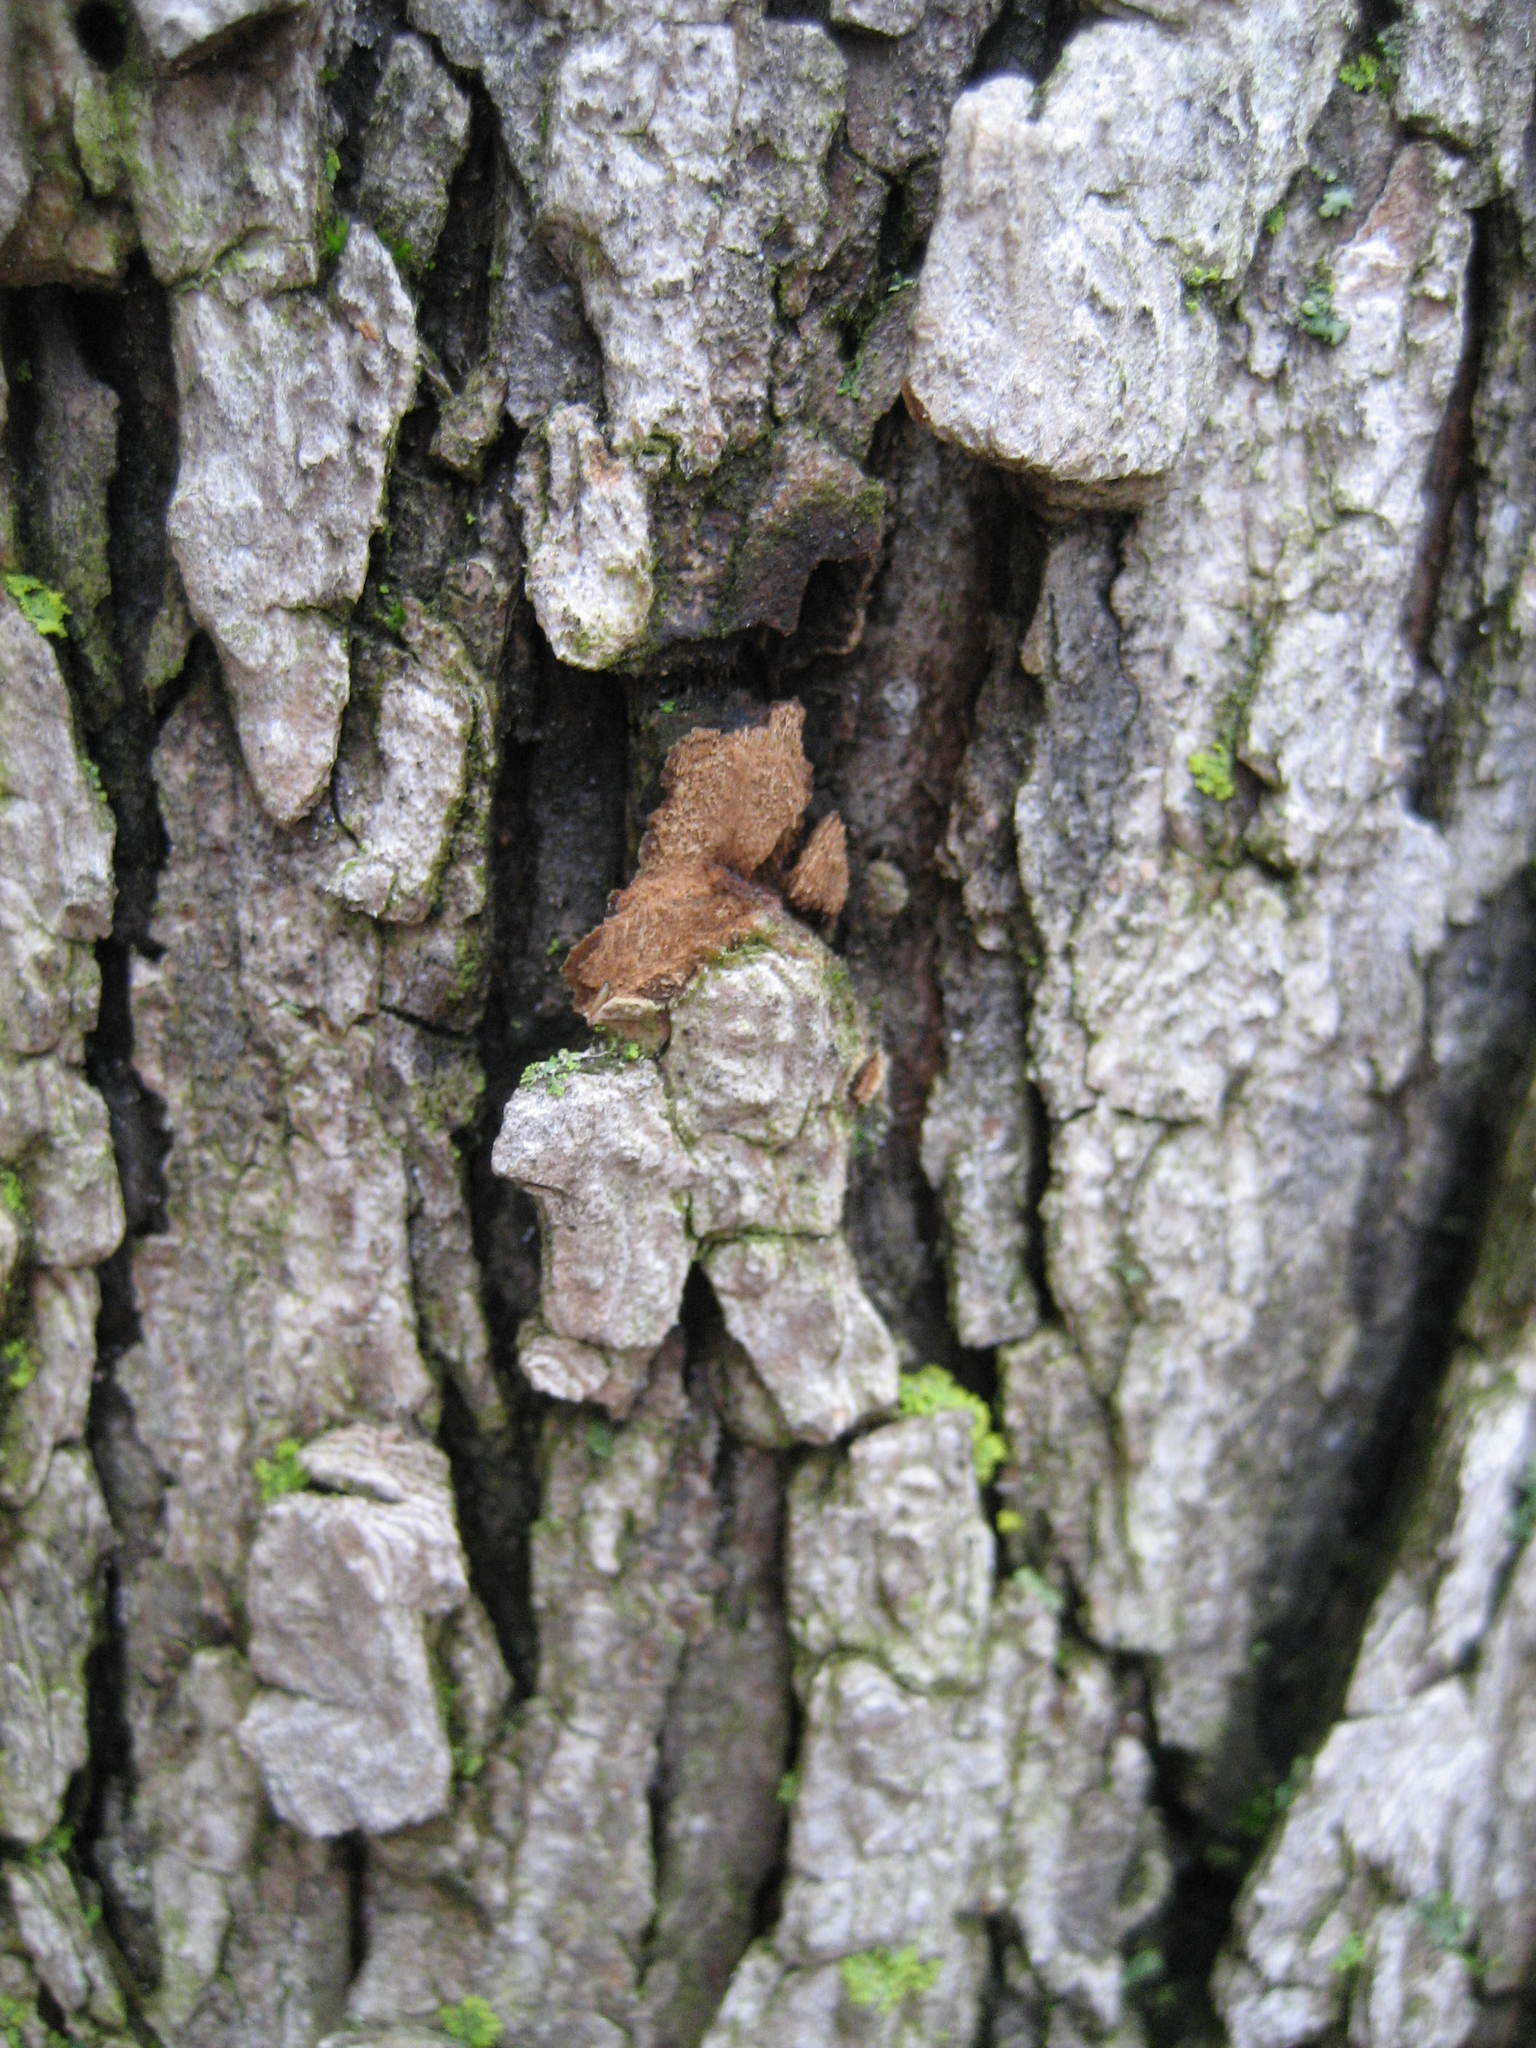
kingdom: Plantae
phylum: Tracheophyta
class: Magnoliopsida
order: Rosales
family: Ulmaceae
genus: Ulmus
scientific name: Ulmus rubra
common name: Slippery elm
